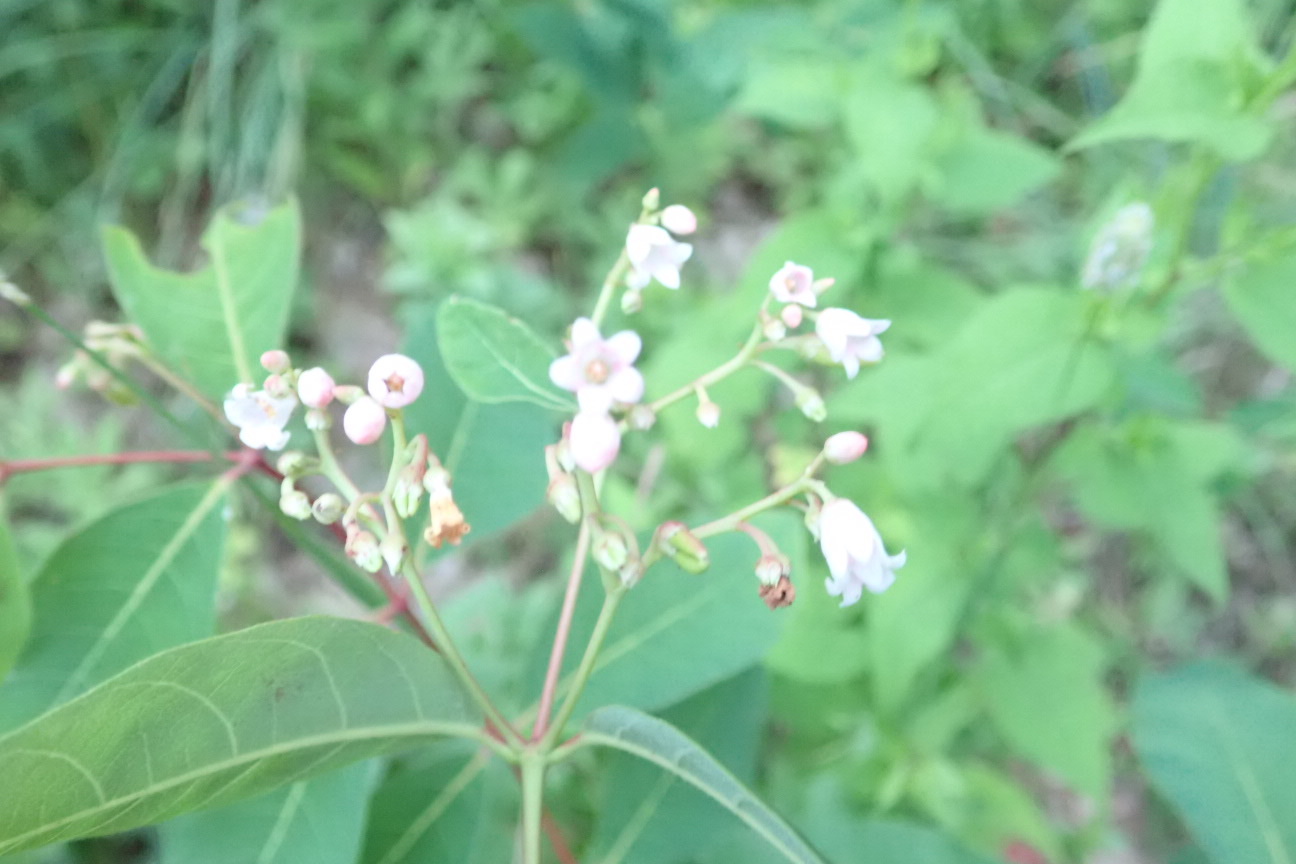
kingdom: Plantae
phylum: Tracheophyta
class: Magnoliopsida
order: Gentianales
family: Apocynaceae
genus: Apocynum
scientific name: Apocynum androsaemifolium
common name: Spreading dogbane
